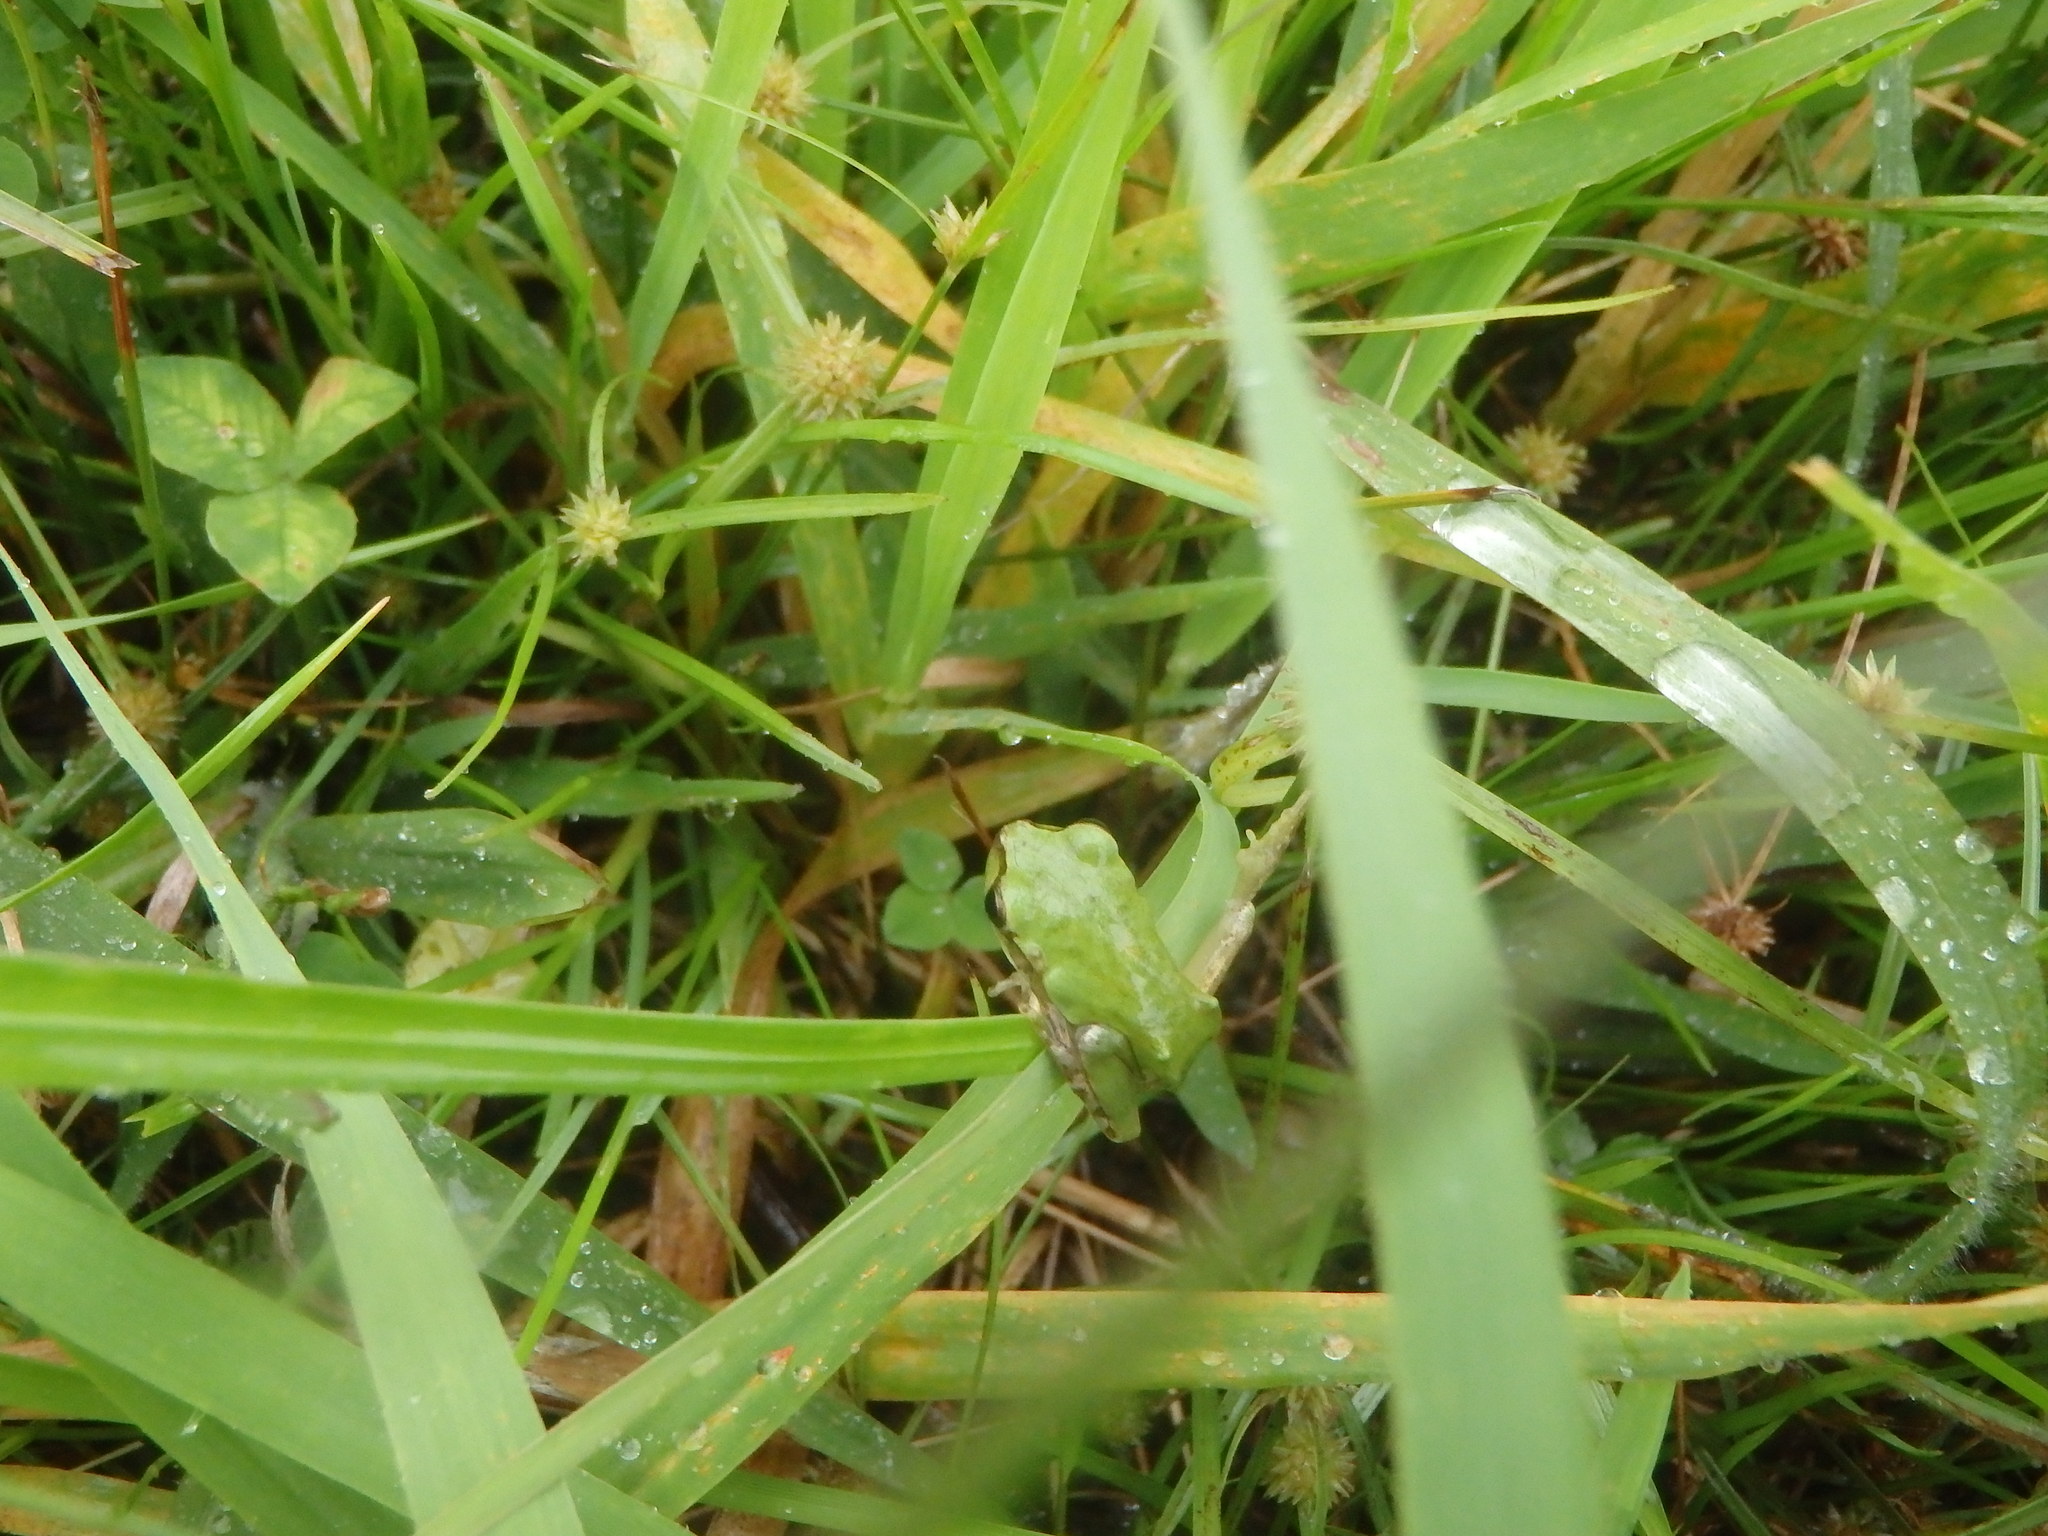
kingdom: Animalia
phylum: Chordata
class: Amphibia
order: Anura
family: Hylidae
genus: Dryophytes
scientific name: Dryophytes japonicus
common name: Japanese treefrog
